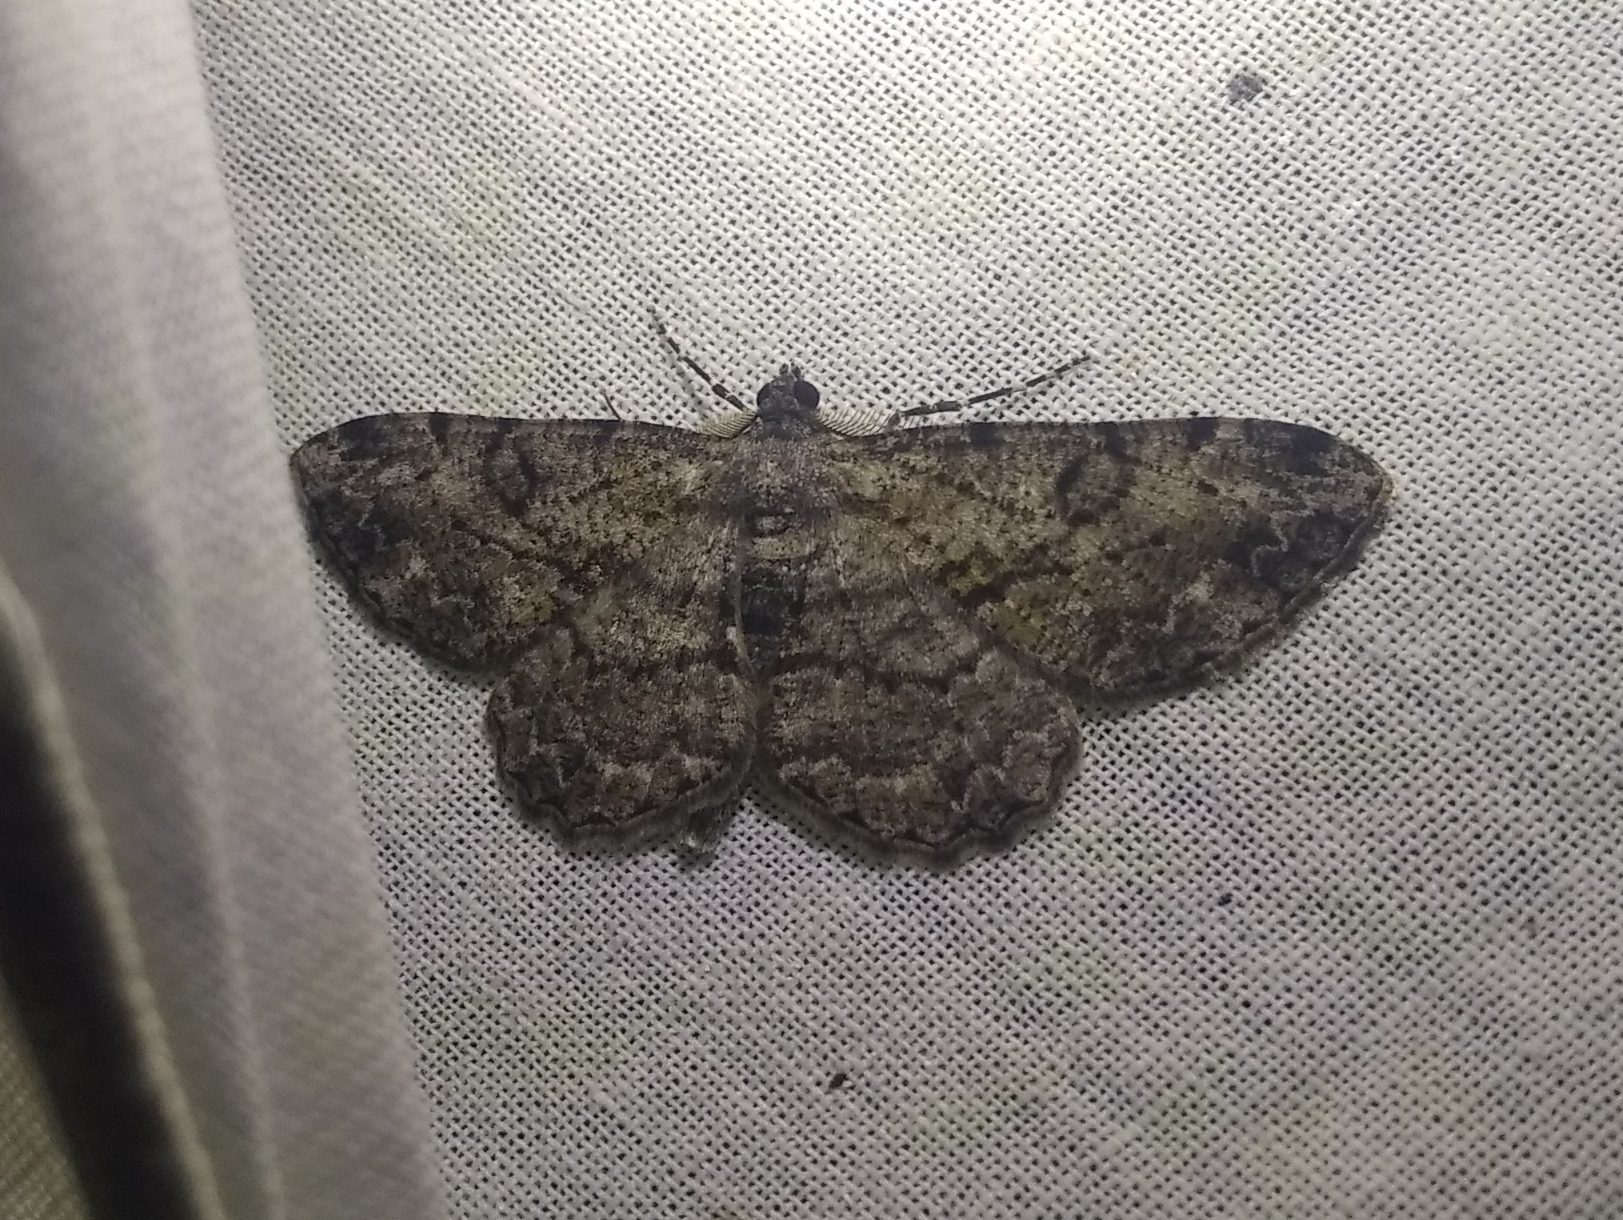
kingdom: Animalia
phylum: Arthropoda
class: Insecta
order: Lepidoptera
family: Geometridae
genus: Peribatodes
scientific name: Peribatodes rhomboidaria
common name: Willow beauty
